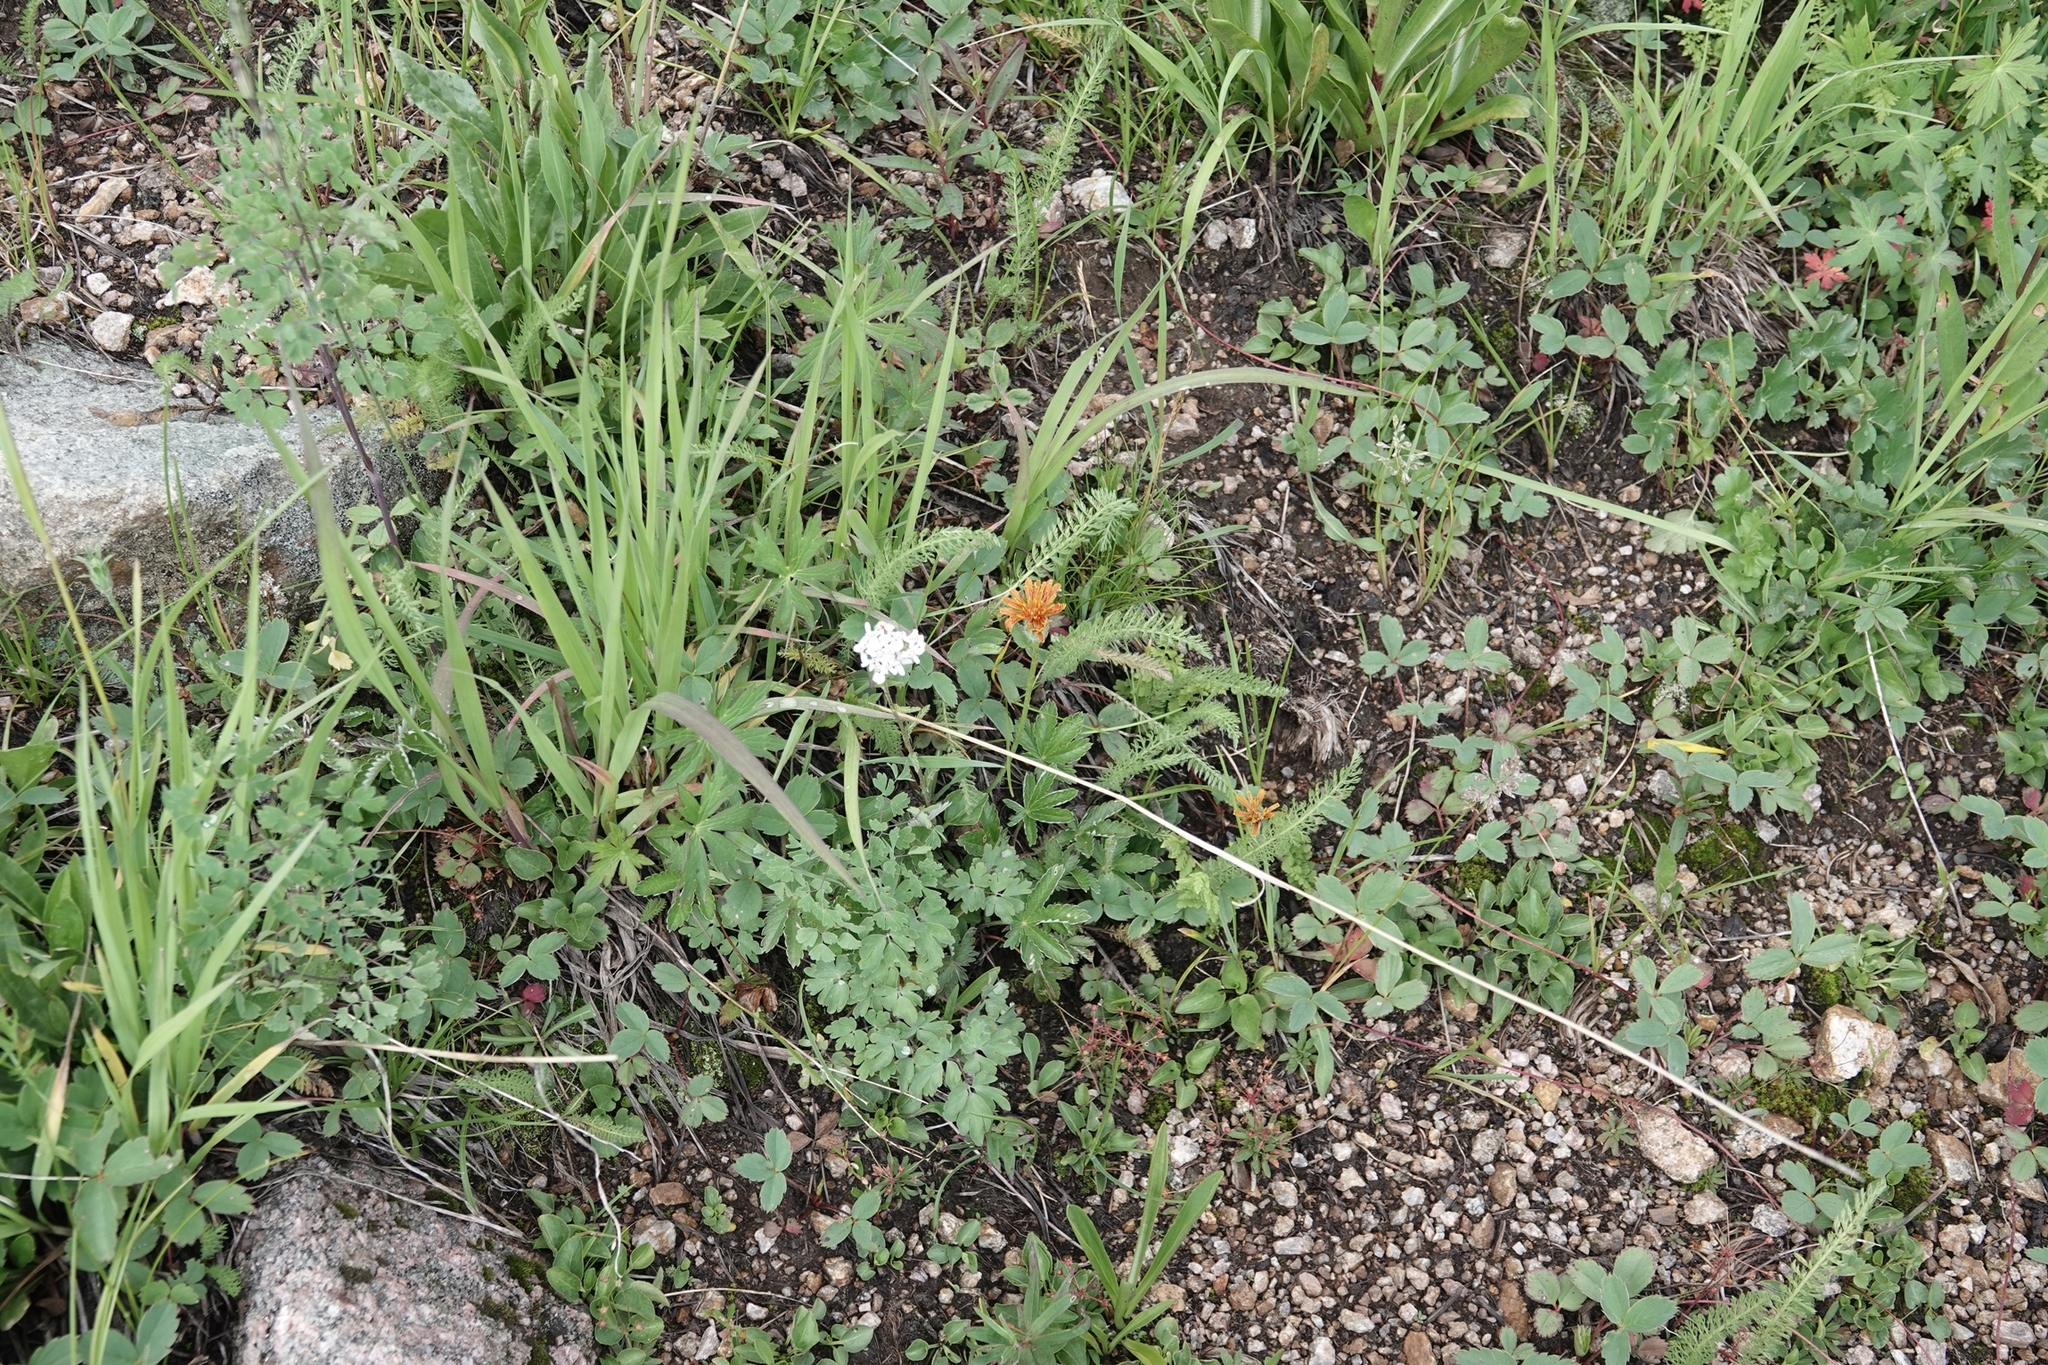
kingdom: Plantae
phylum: Tracheophyta
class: Magnoliopsida
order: Asterales
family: Asteraceae
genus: Agoseris
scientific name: Agoseris aurantiaca
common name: Mountain agoseris
